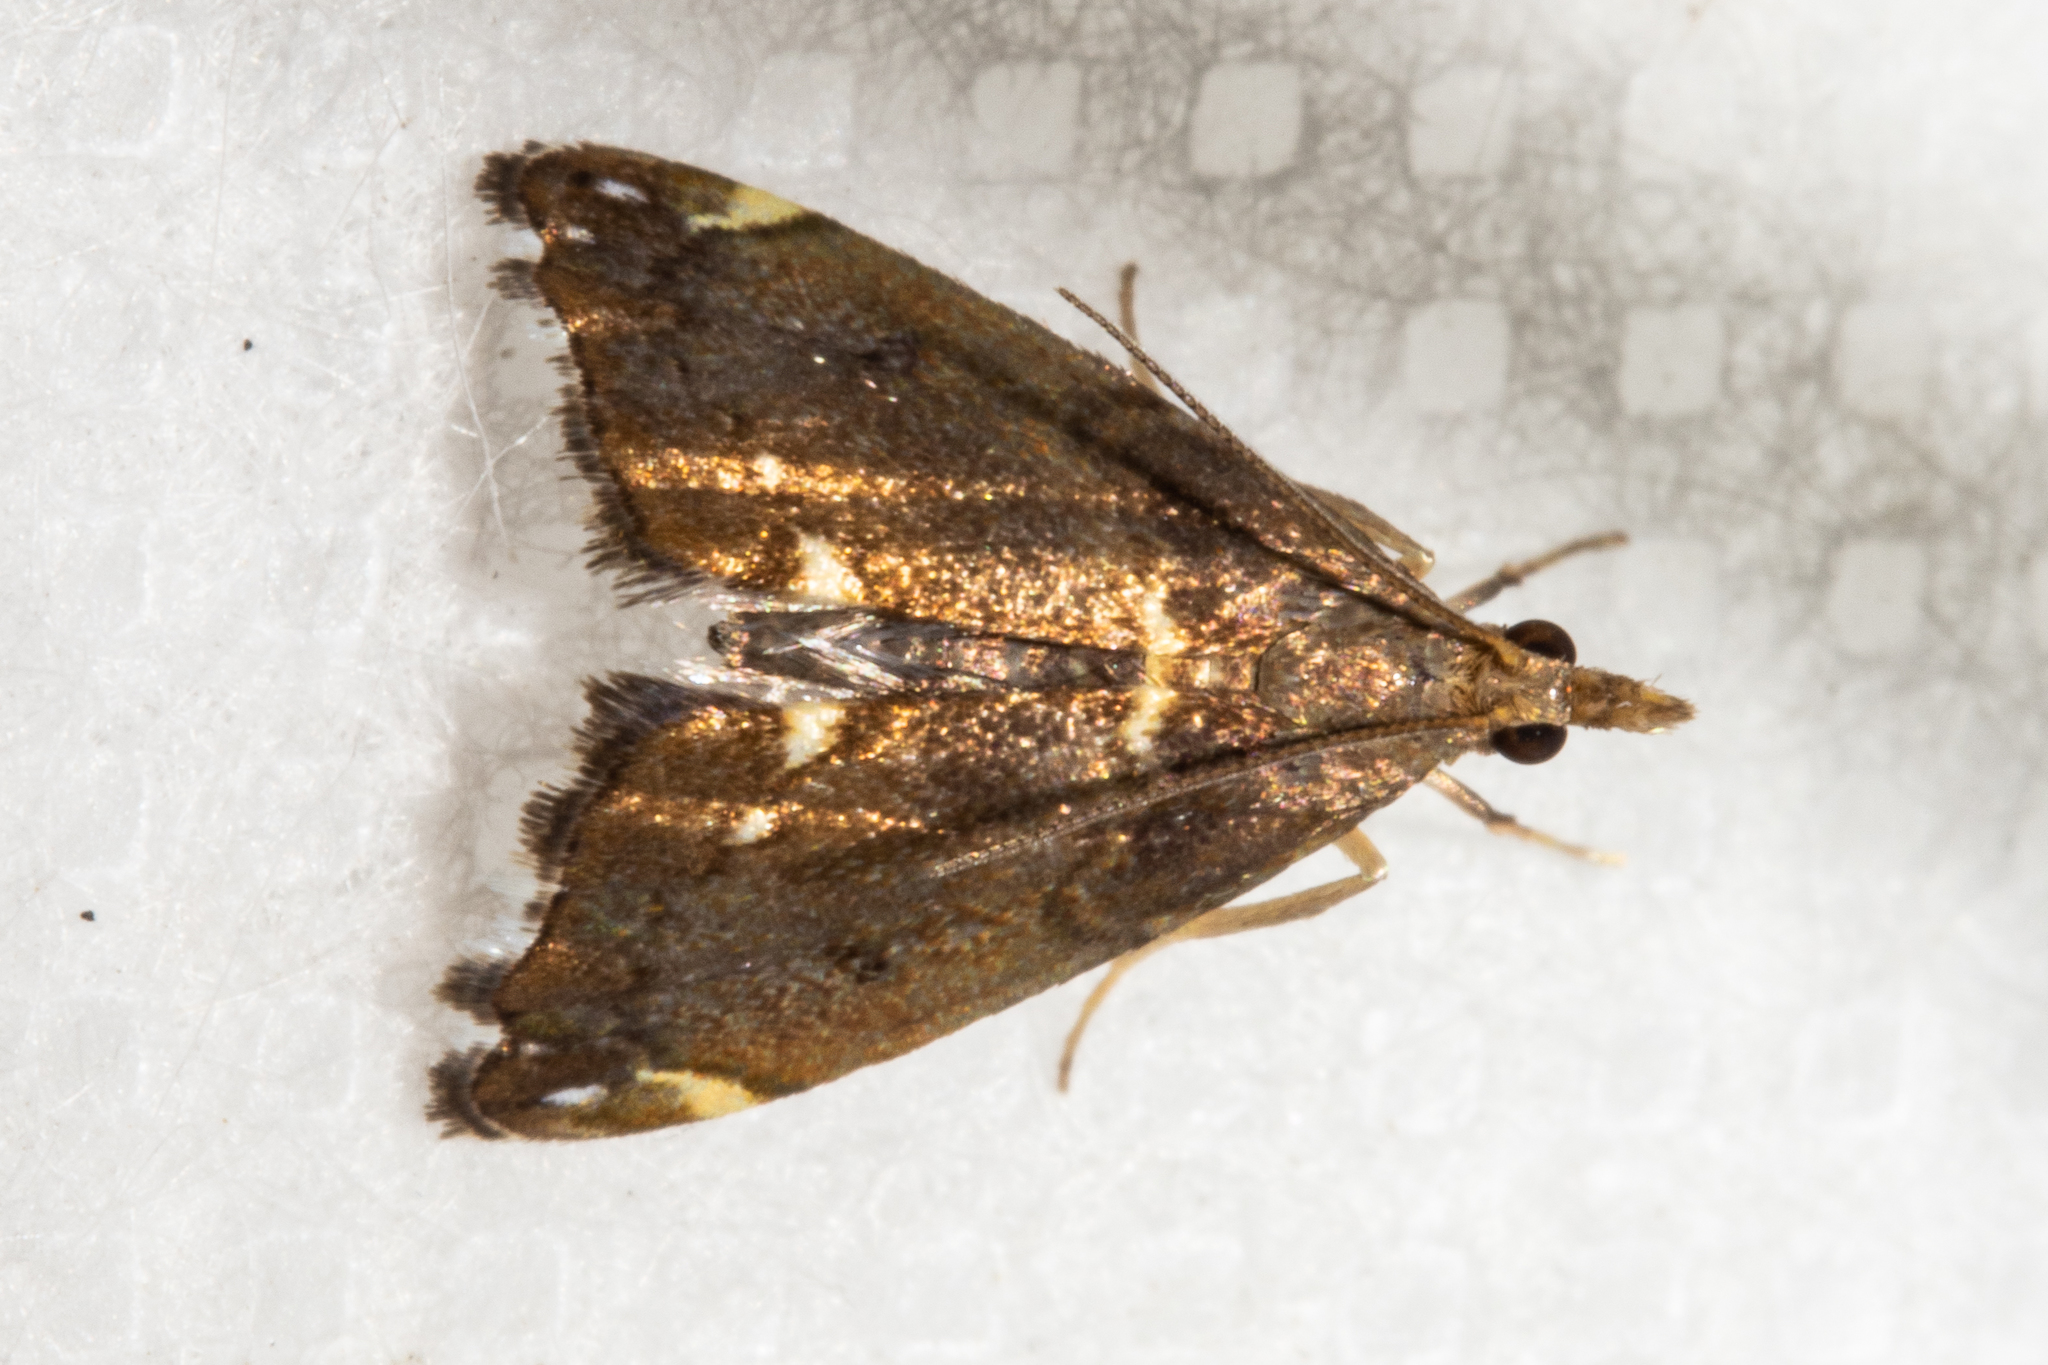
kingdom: Animalia
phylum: Arthropoda
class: Insecta
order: Lepidoptera
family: Crambidae
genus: Glaucocharis
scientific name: Glaucocharis pyrsophanes
